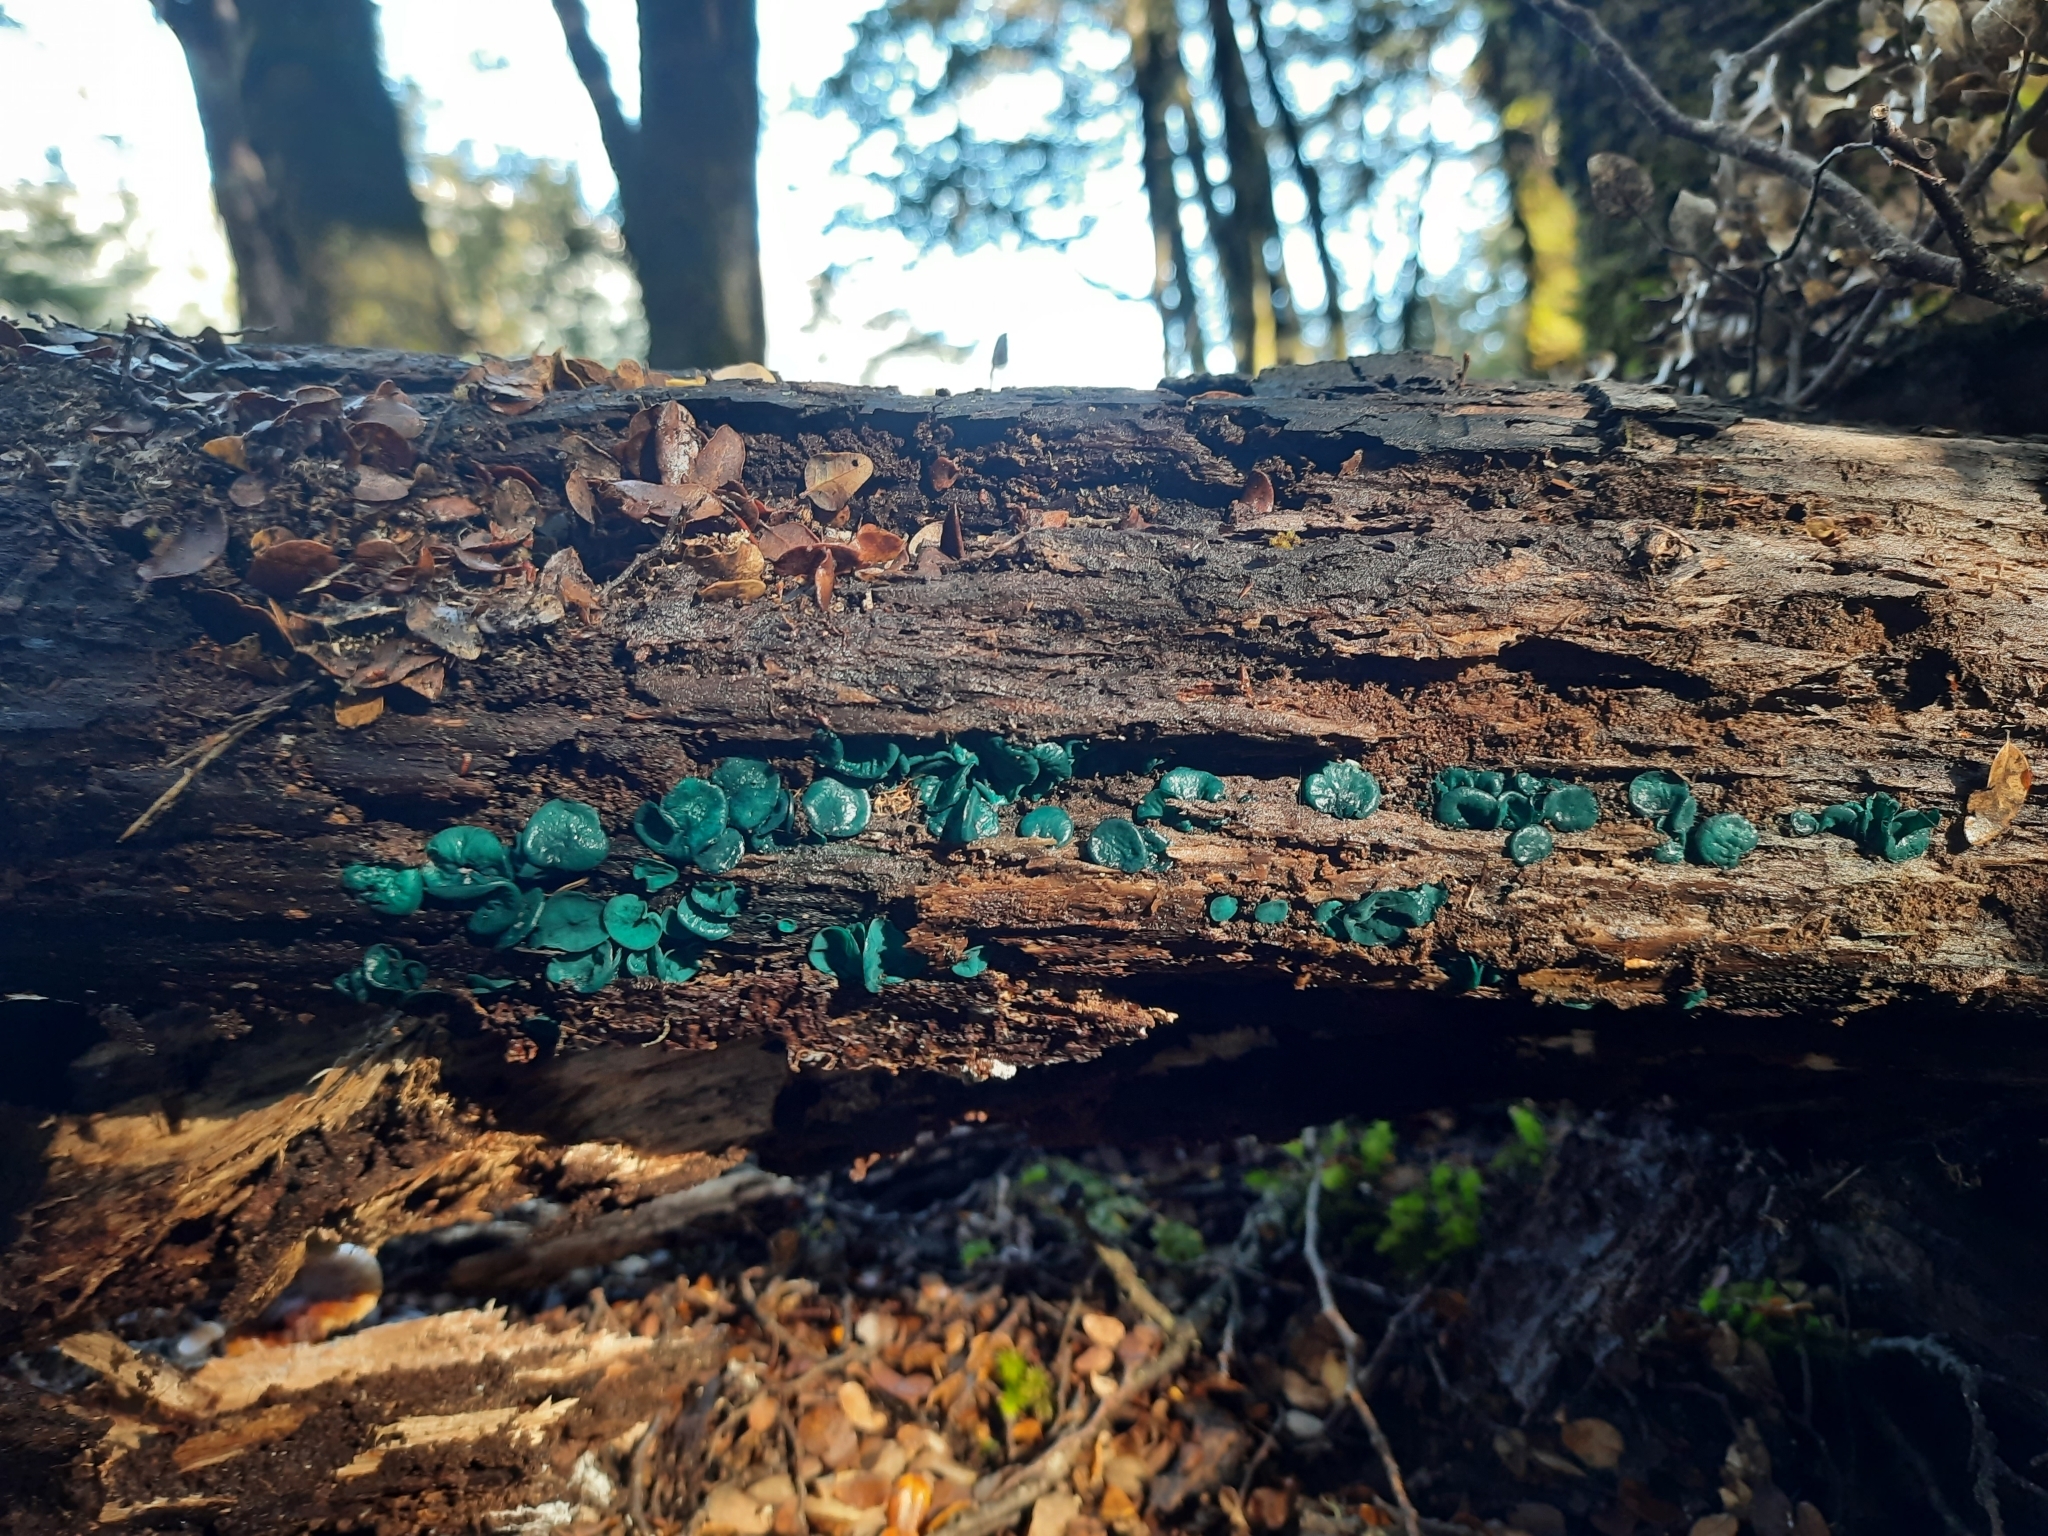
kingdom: Fungi
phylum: Ascomycota
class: Leotiomycetes
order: Helotiales
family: Chlorociboriaceae
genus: Chlorociboria
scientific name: Chlorociboria
